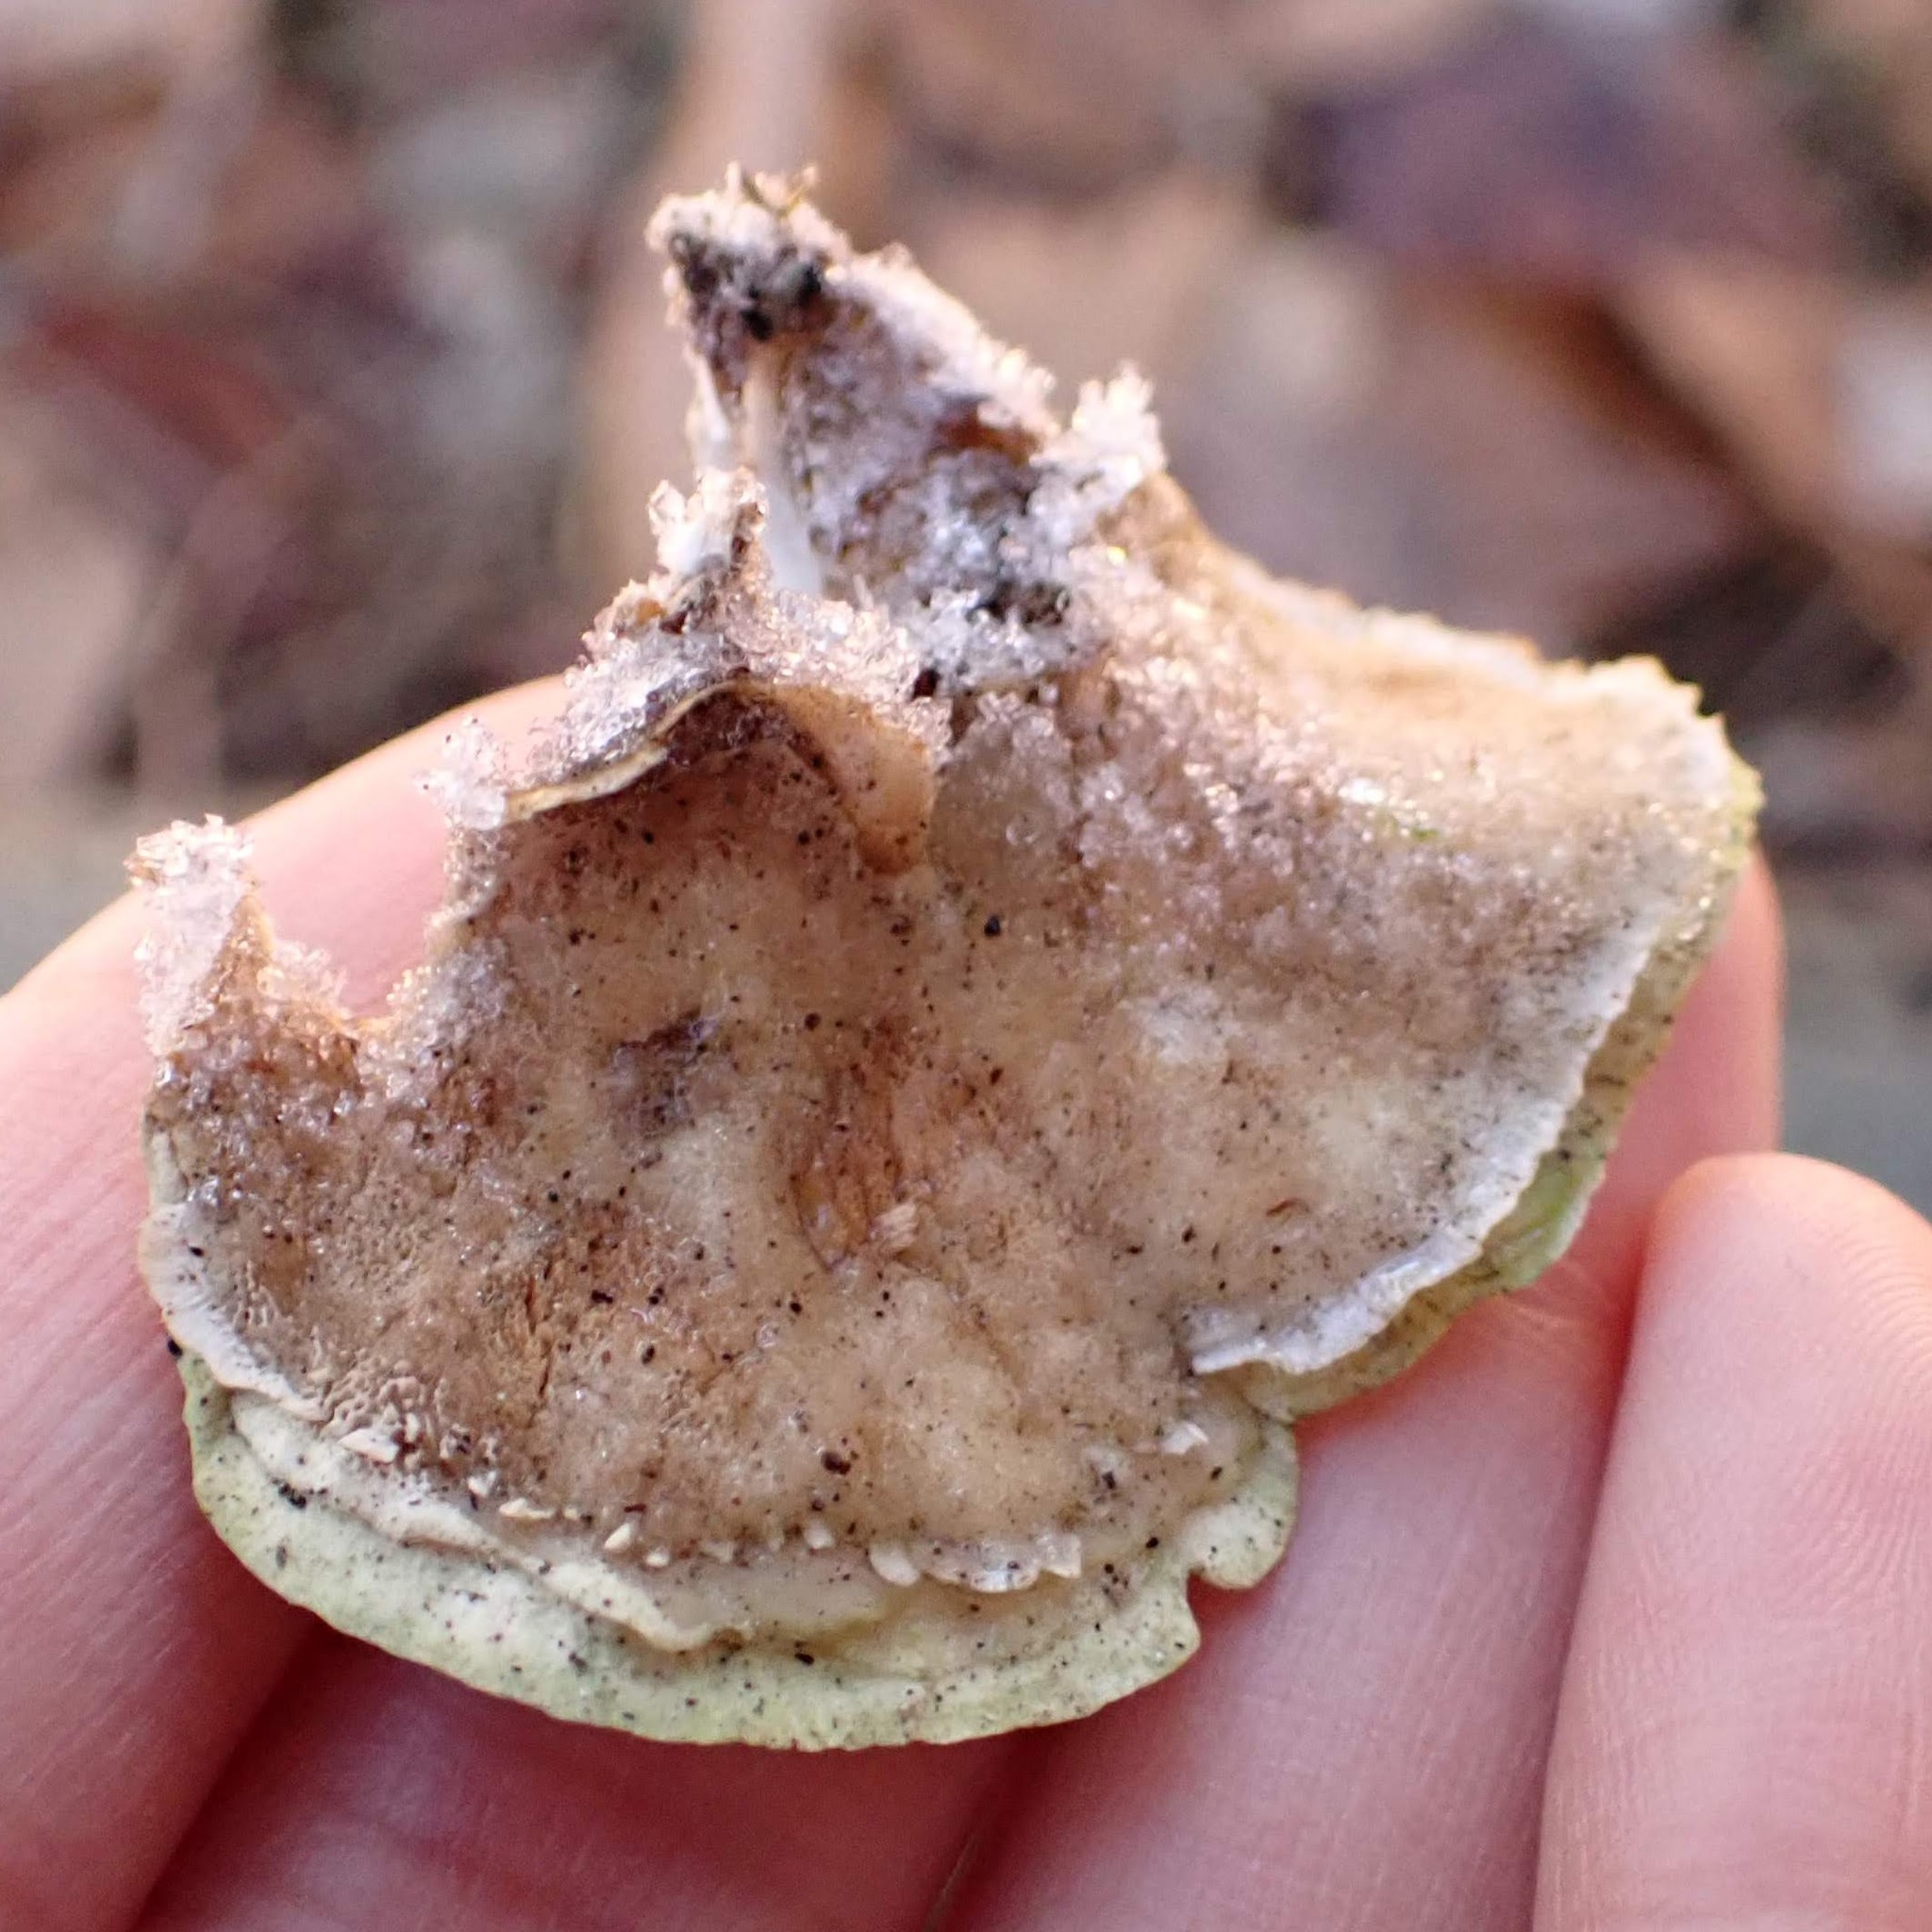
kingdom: Fungi
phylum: Basidiomycota
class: Agaricomycetes
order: Polyporales
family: Polyporaceae
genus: Trametes
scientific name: Trametes versicolor
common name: Turkeytail
